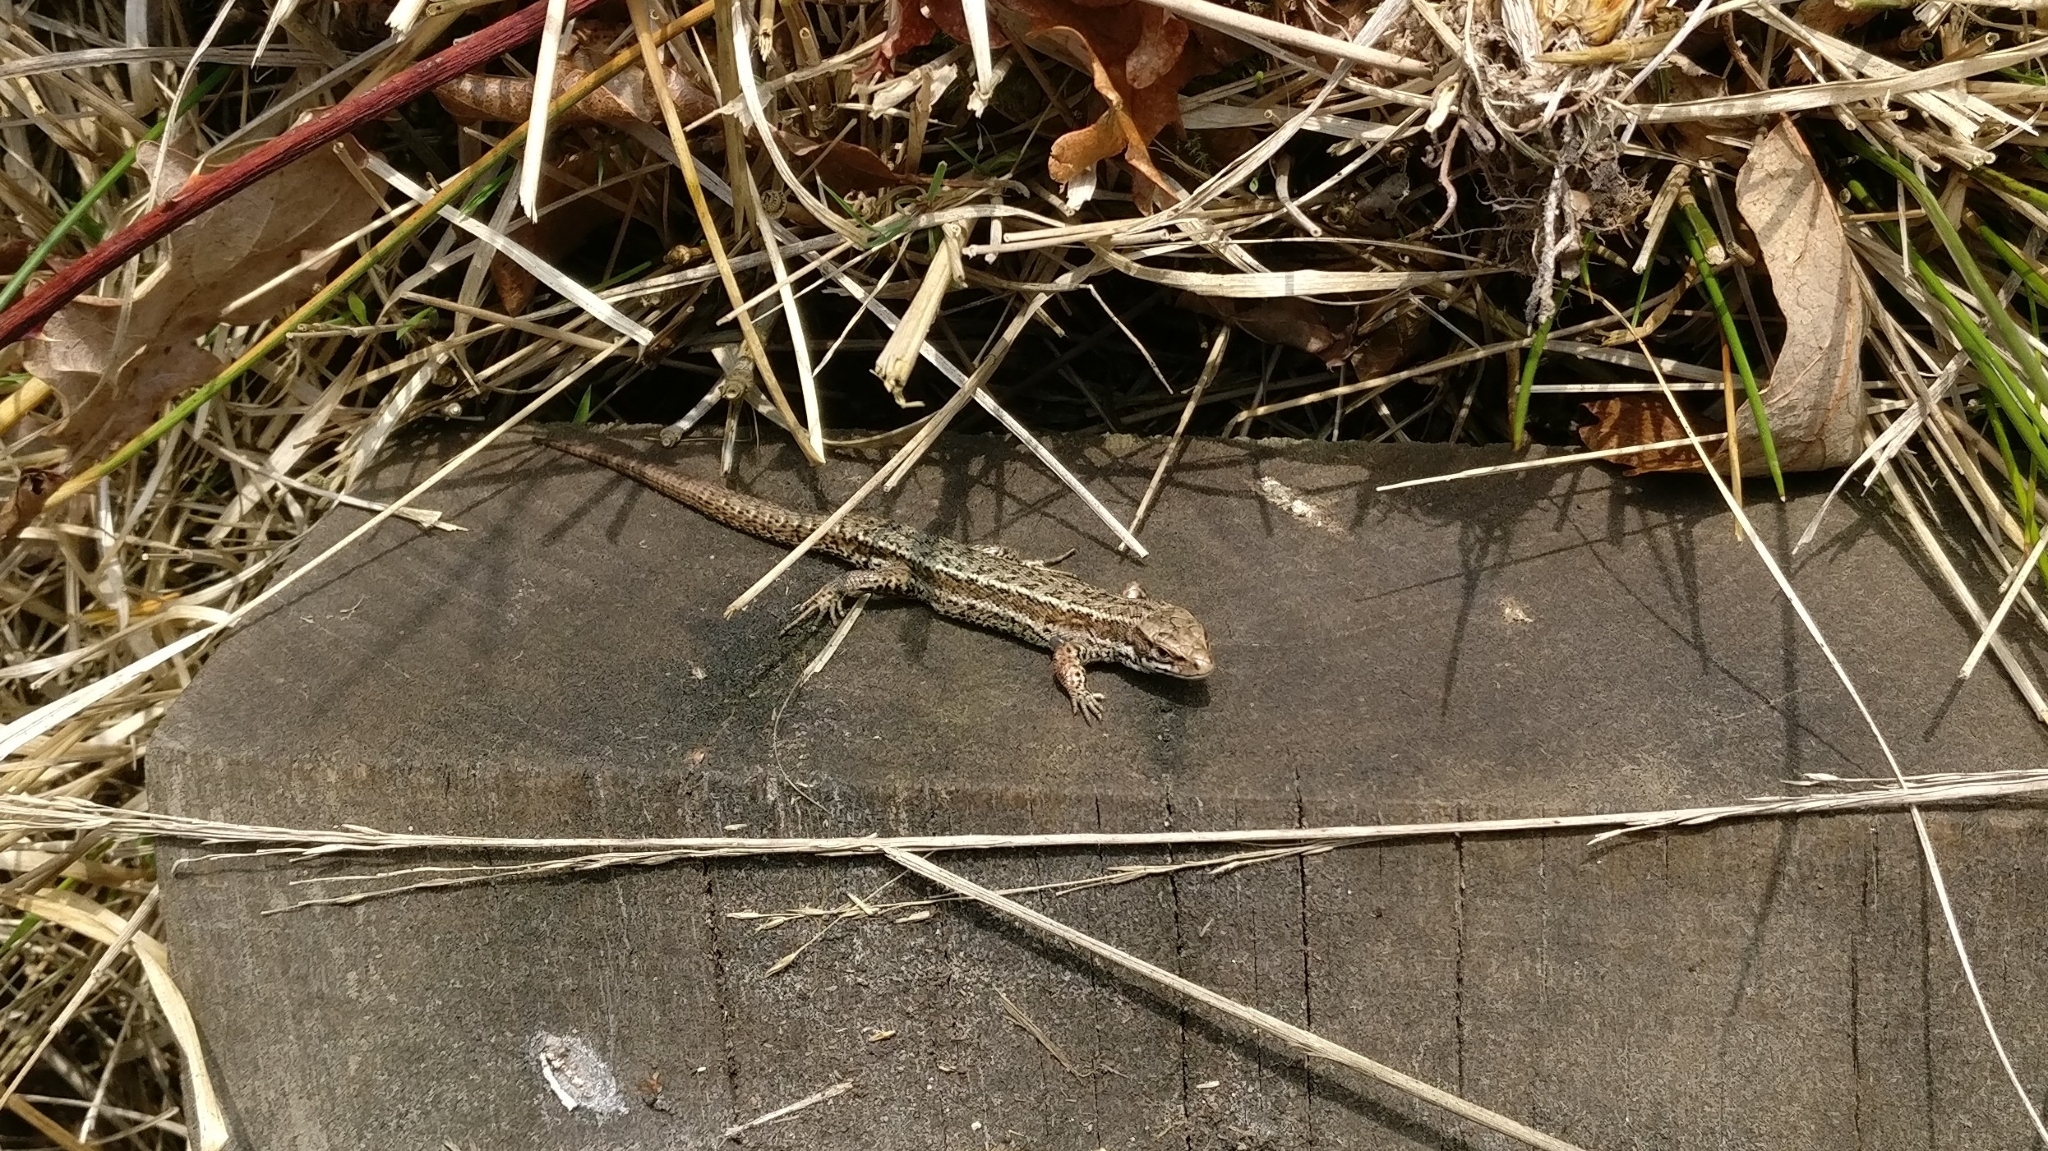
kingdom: Animalia
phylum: Chordata
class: Squamata
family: Lacertidae
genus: Zootoca
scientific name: Zootoca vivipara
